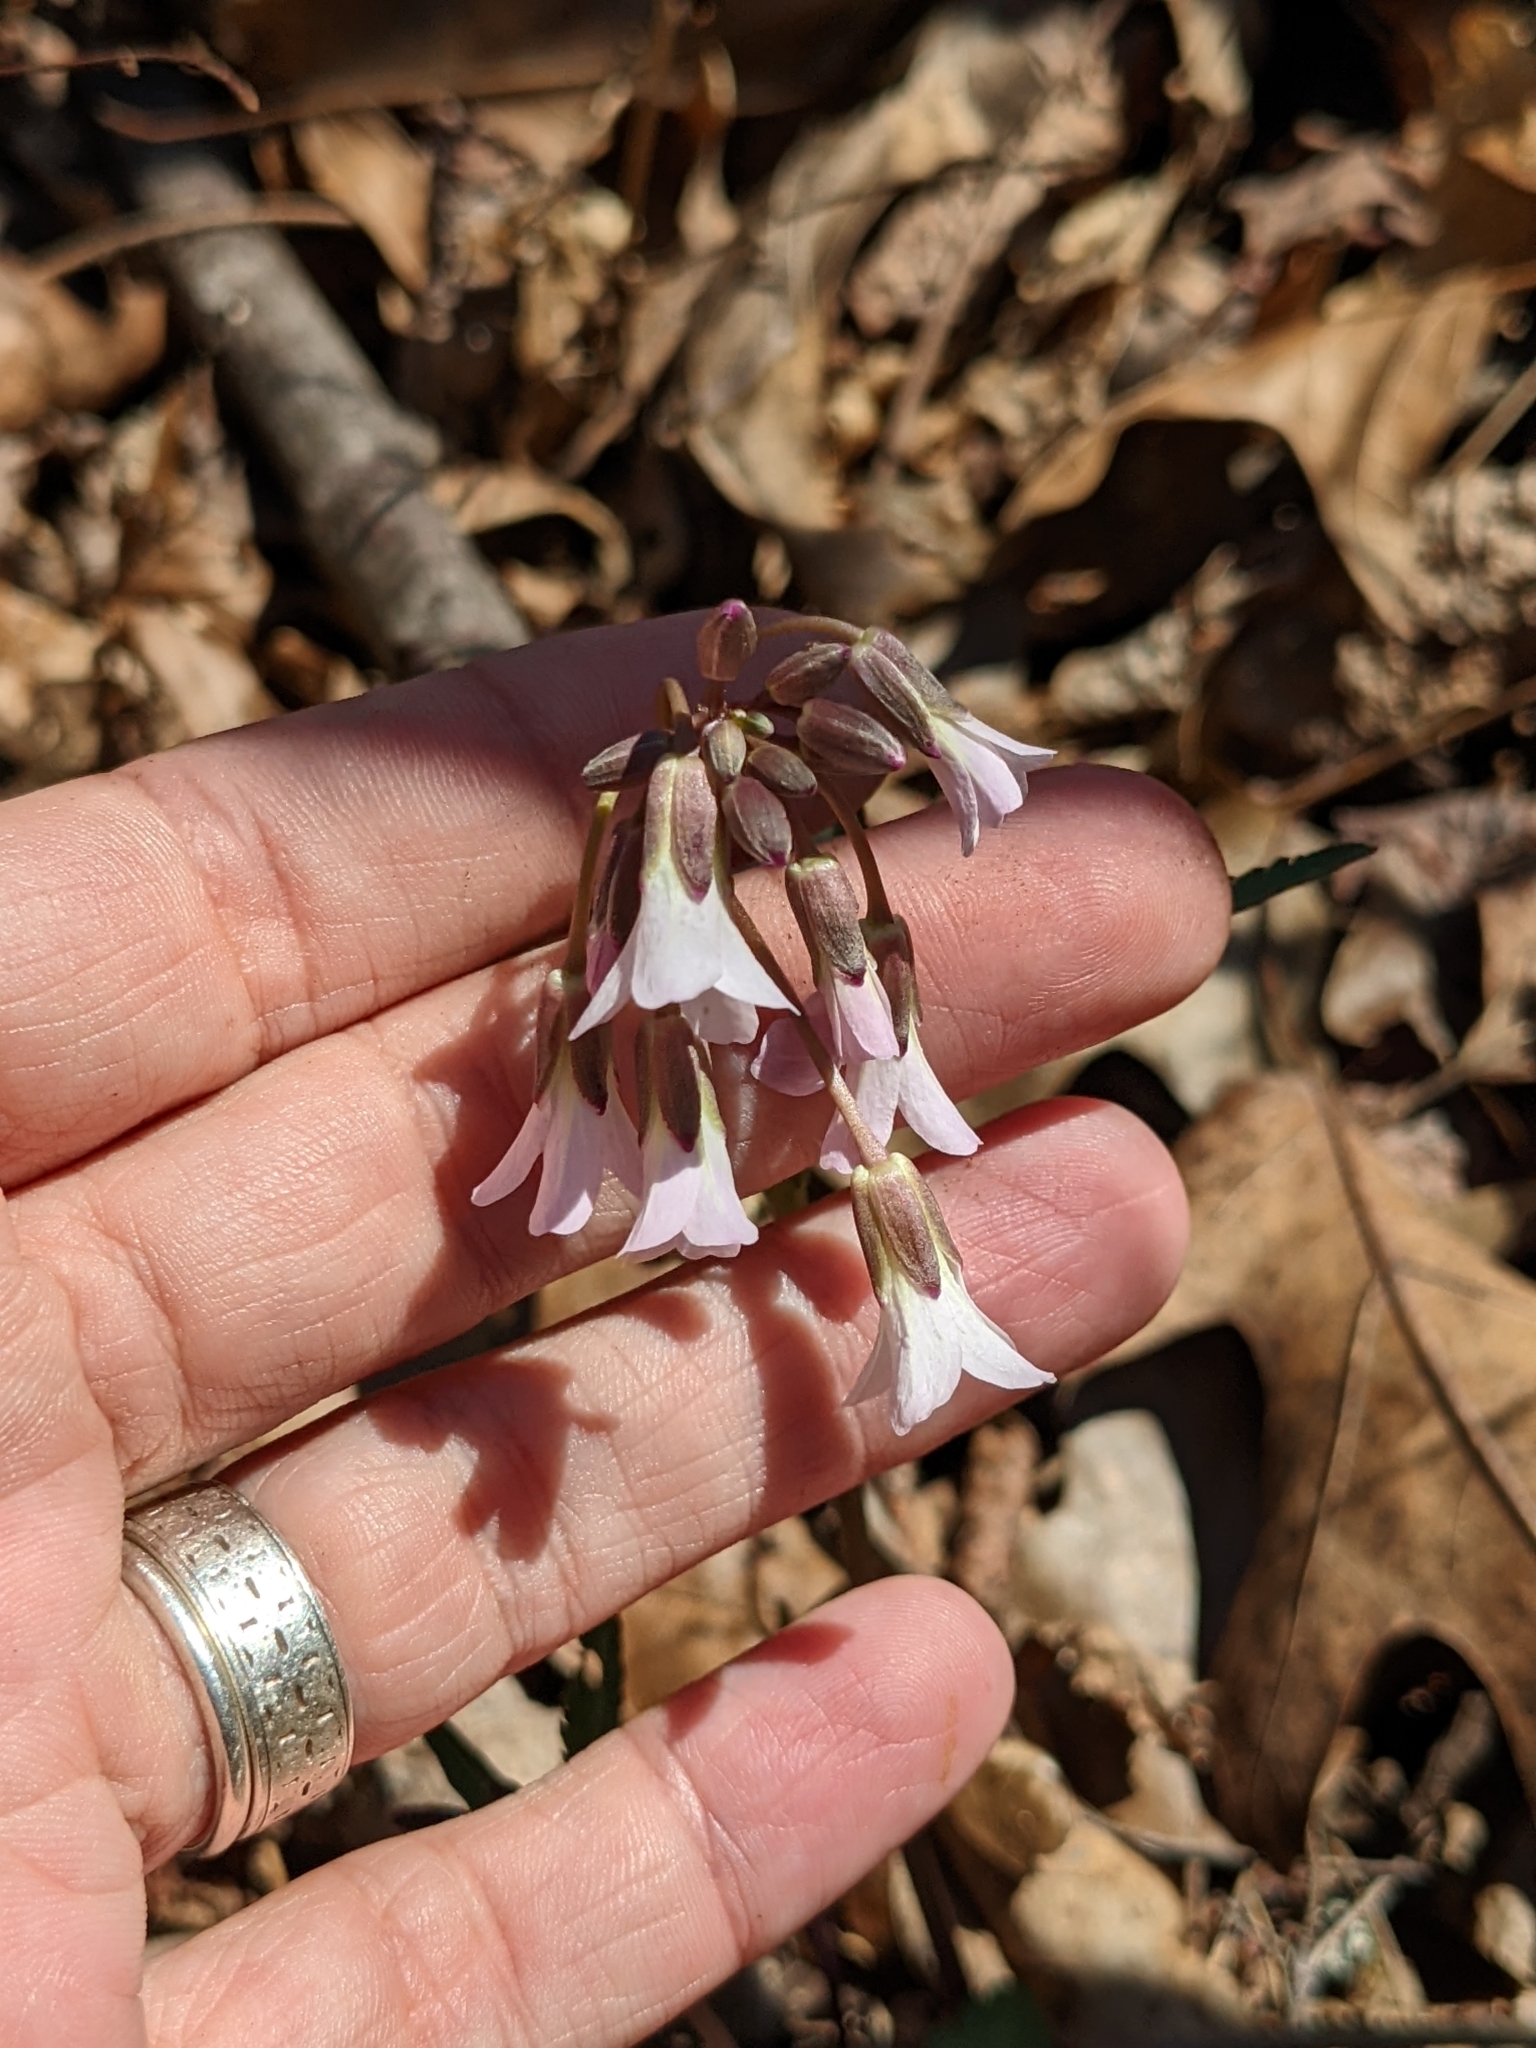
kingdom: Plantae
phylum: Tracheophyta
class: Magnoliopsida
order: Brassicales
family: Brassicaceae
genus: Cardamine
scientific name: Cardamine angustata
